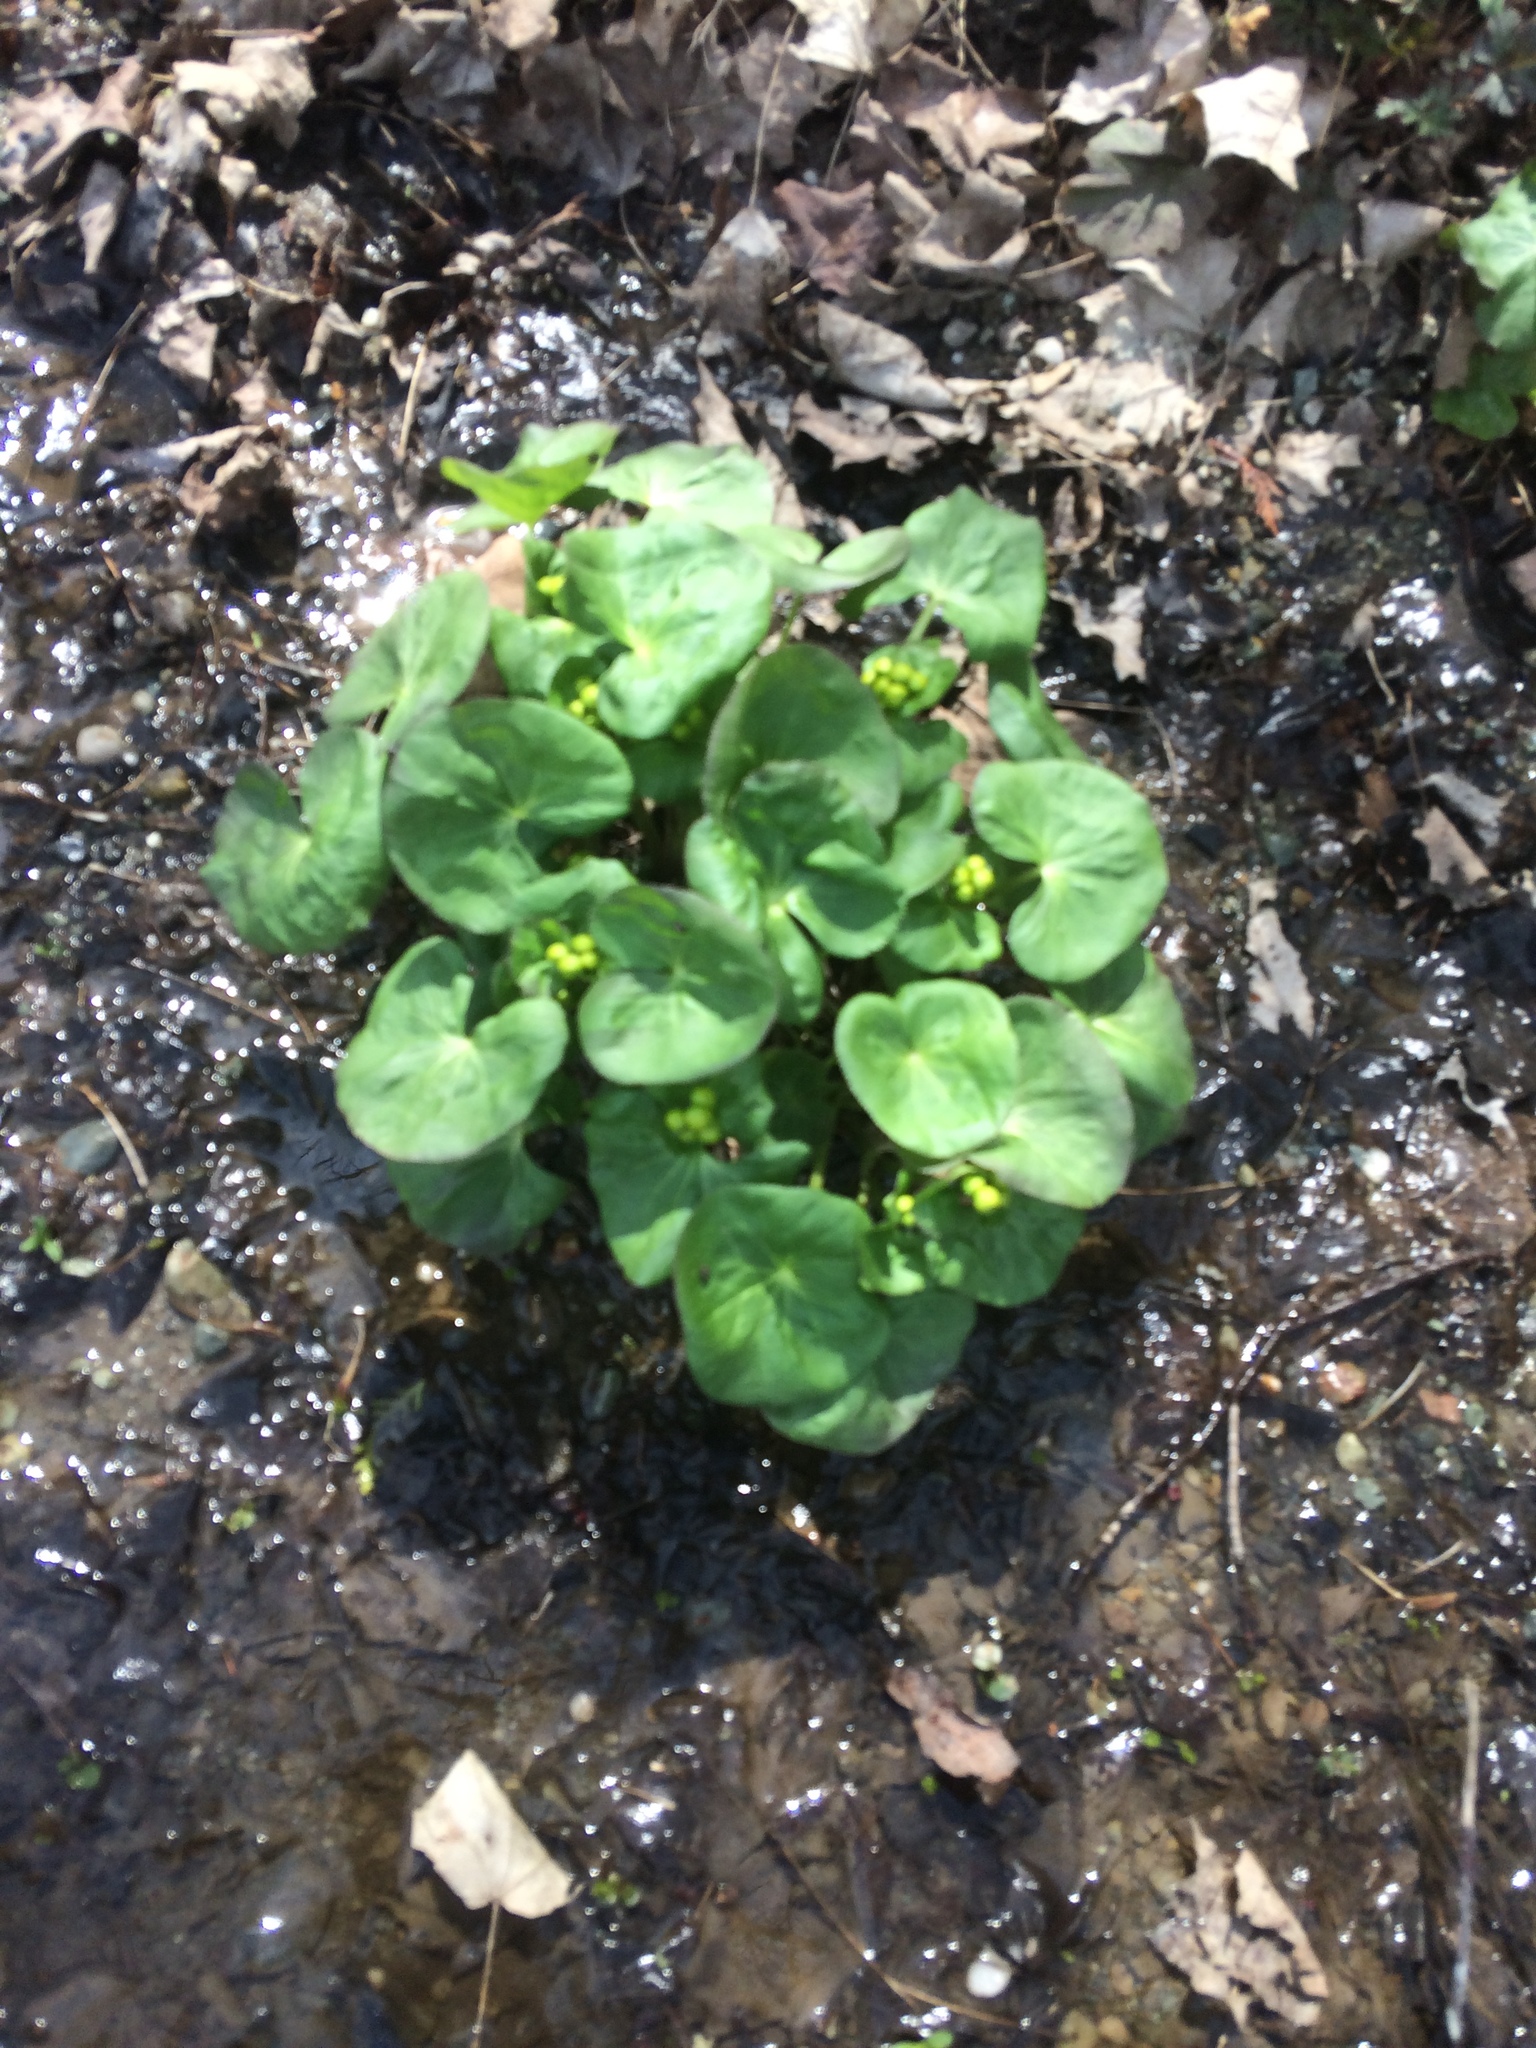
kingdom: Plantae
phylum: Tracheophyta
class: Magnoliopsida
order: Ranunculales
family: Ranunculaceae
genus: Caltha
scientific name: Caltha palustris
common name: Marsh marigold
